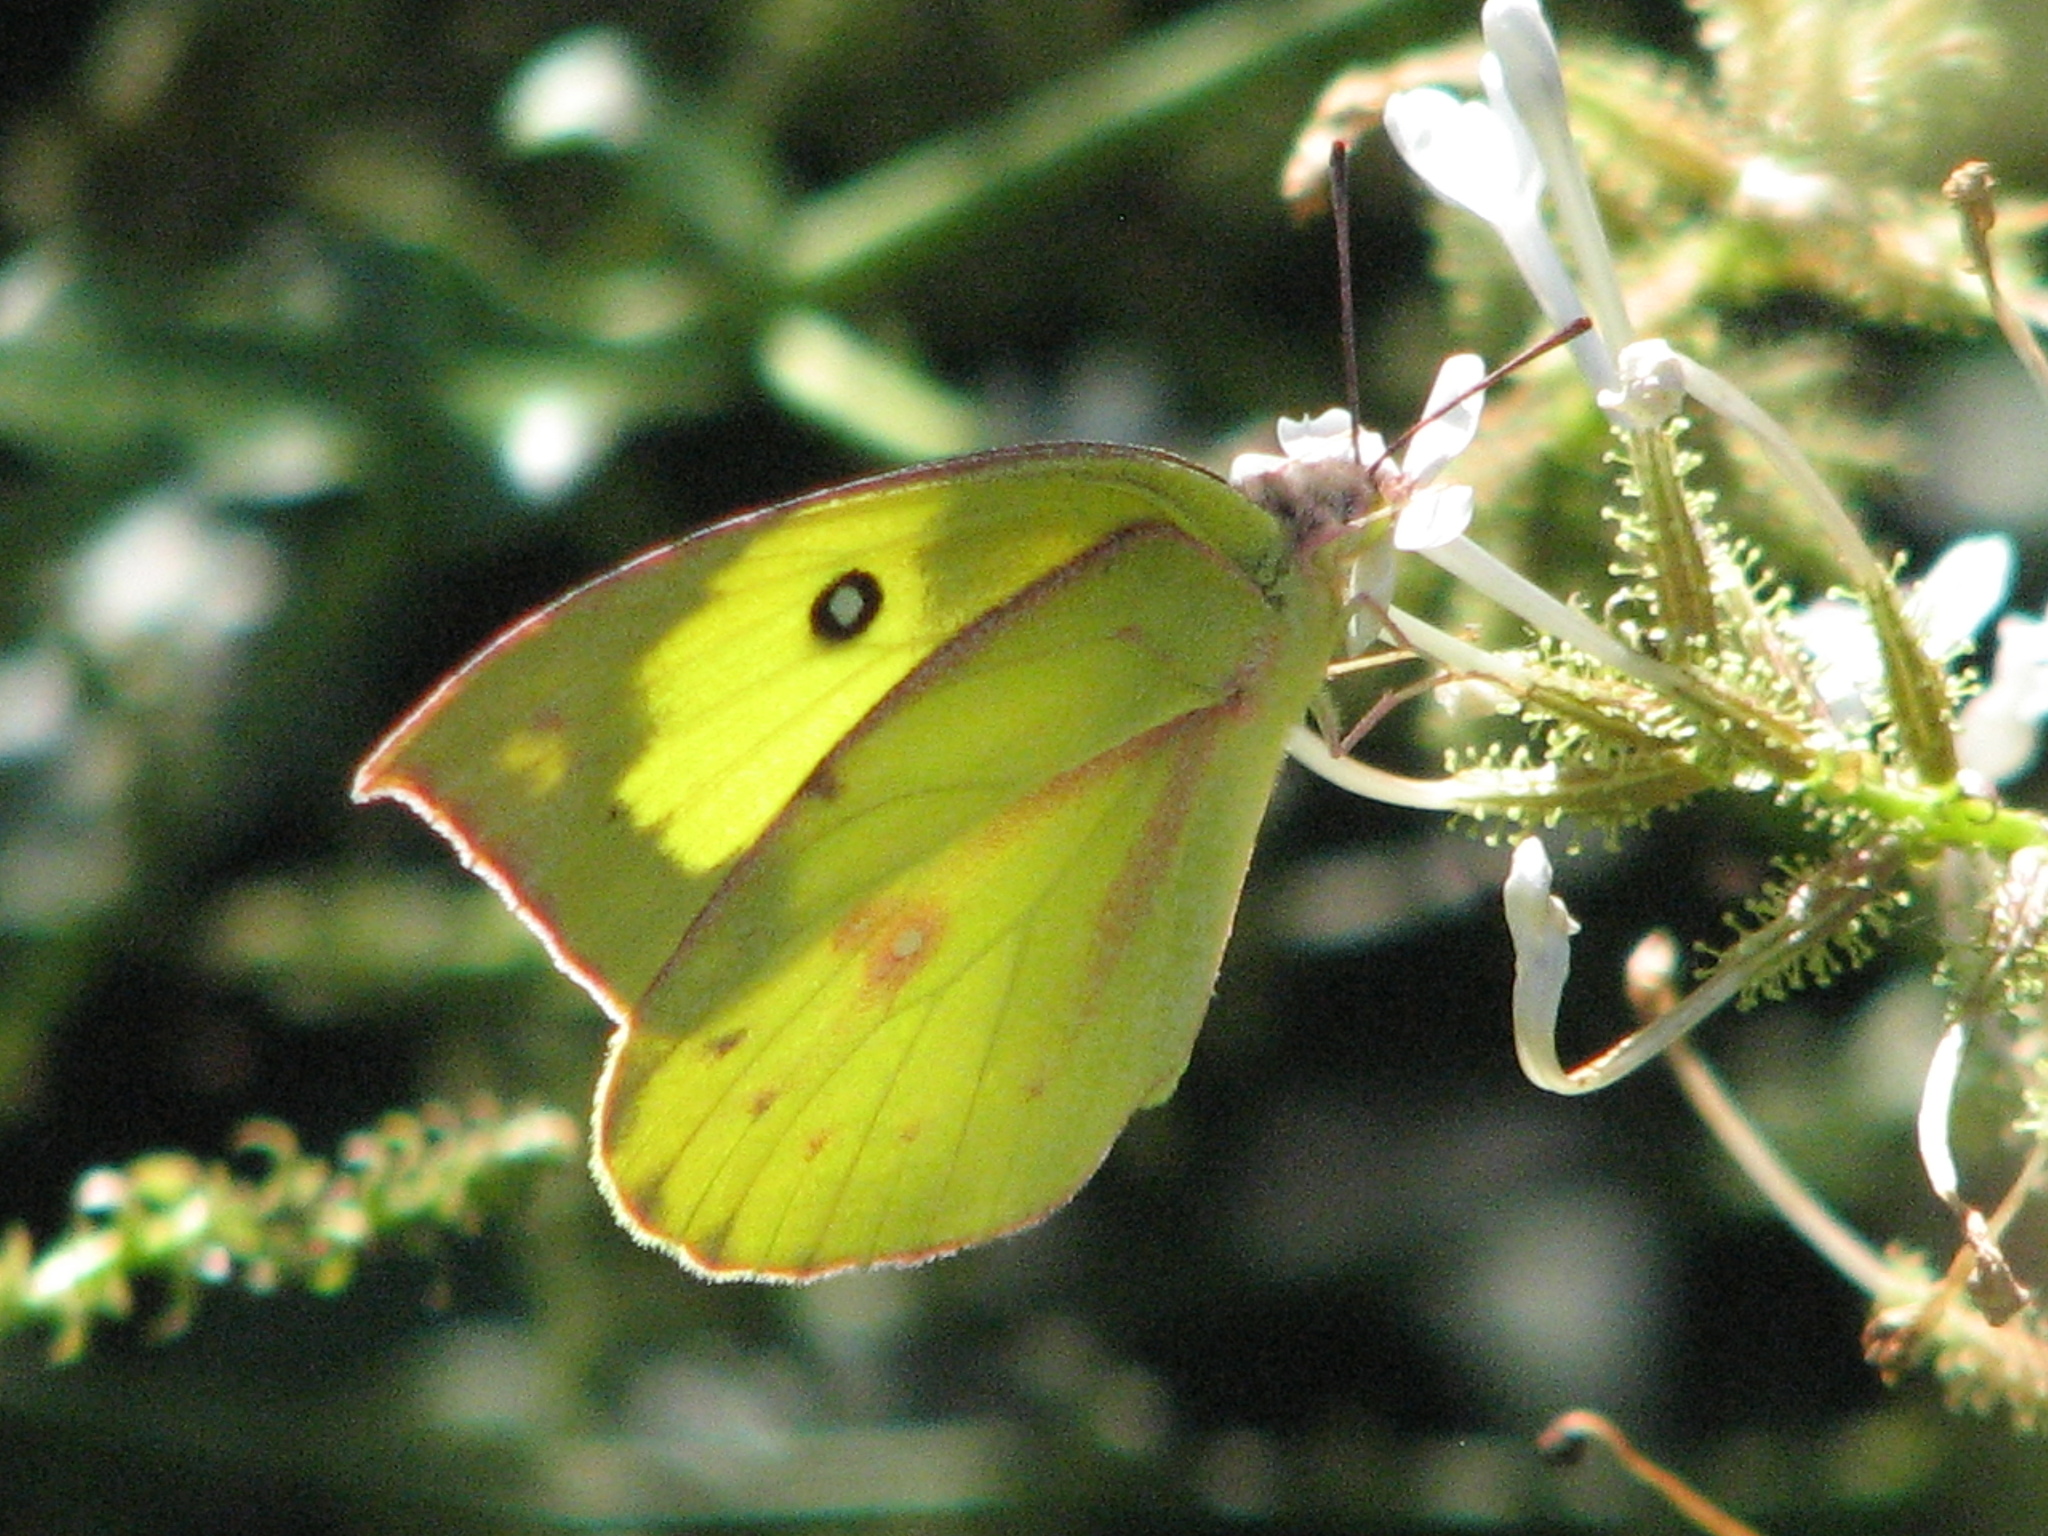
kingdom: Animalia
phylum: Arthropoda
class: Insecta
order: Lepidoptera
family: Pieridae
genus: Zerene
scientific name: Zerene cesonia
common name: Southern dogface
